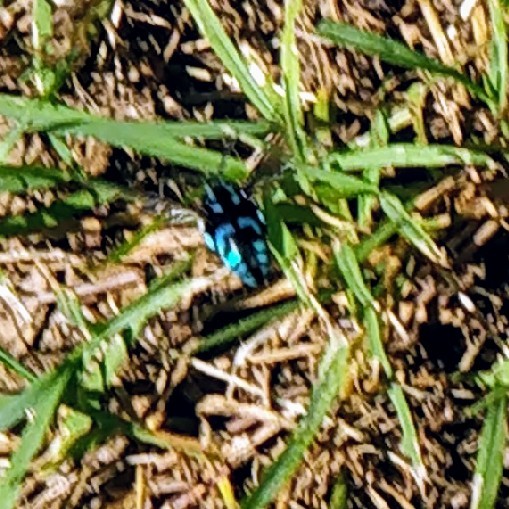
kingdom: Animalia
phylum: Arthropoda
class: Insecta
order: Hymenoptera
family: Apidae
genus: Thyreus
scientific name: Thyreus nitidulus
